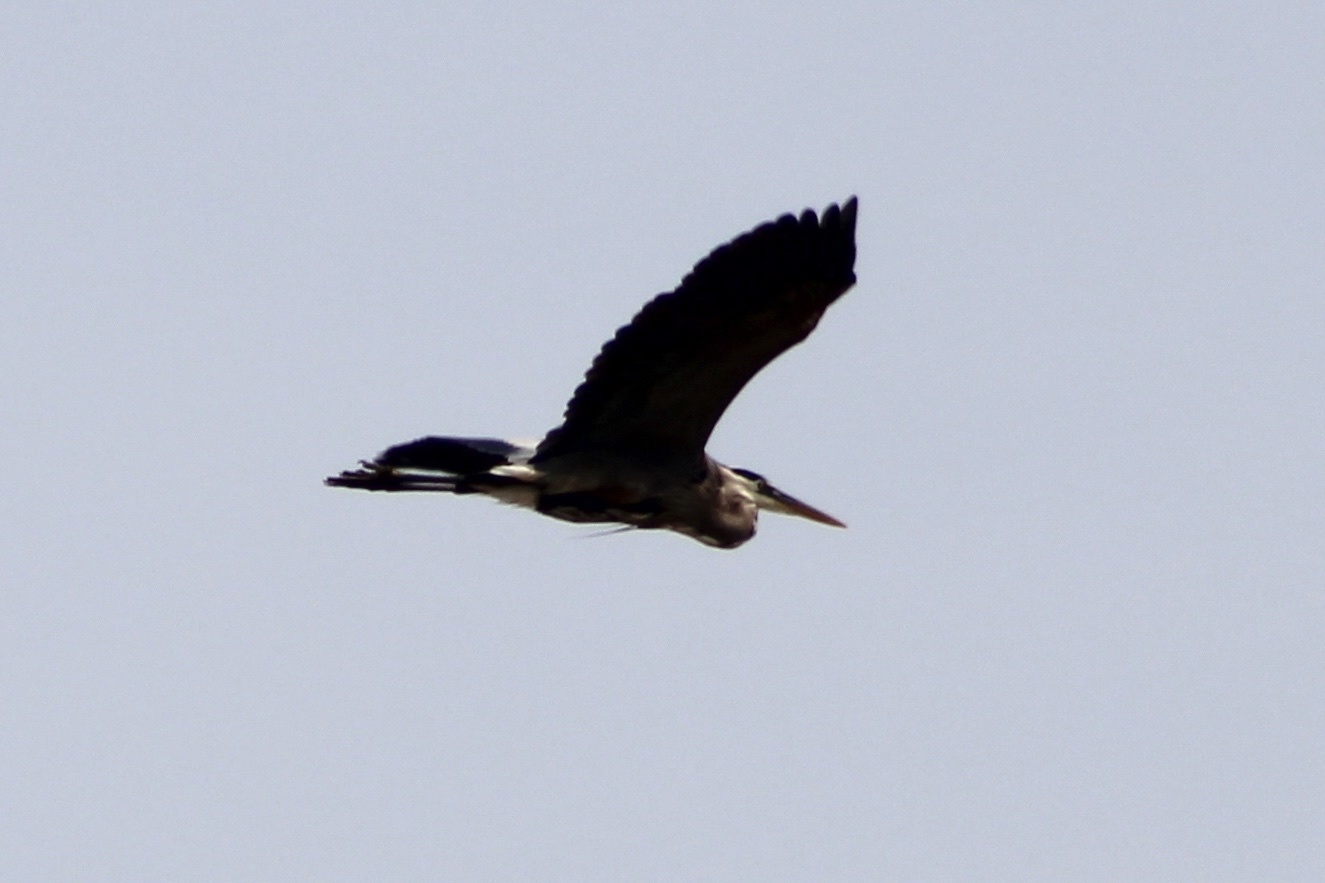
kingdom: Animalia
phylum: Chordata
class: Aves
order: Pelecaniformes
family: Ardeidae
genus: Ardea
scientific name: Ardea herodias
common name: Great blue heron
